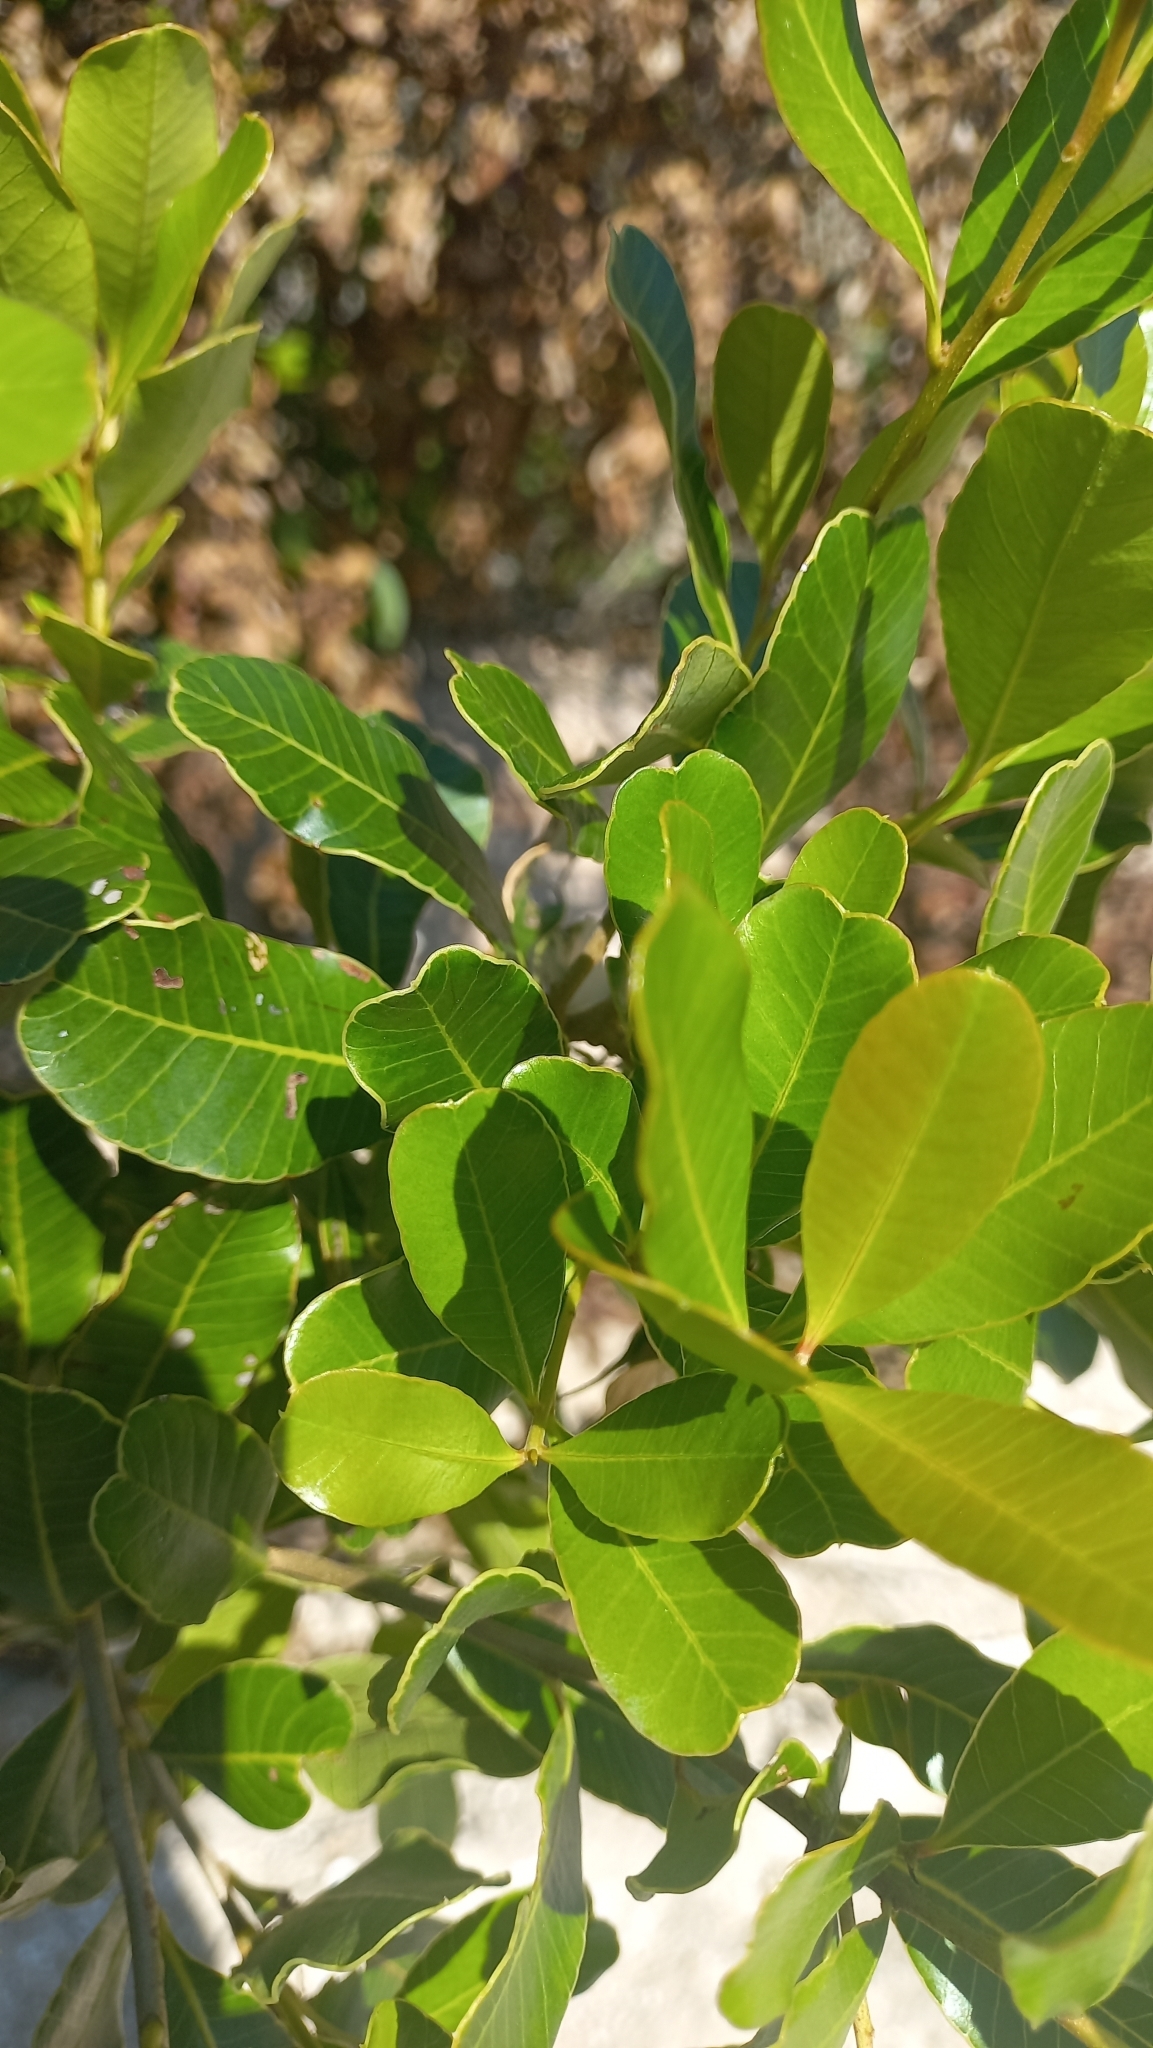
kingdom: Plantae
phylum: Tracheophyta
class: Magnoliopsida
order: Sapindales
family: Anacardiaceae
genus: Lithraea
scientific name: Lithraea brasiliensis
